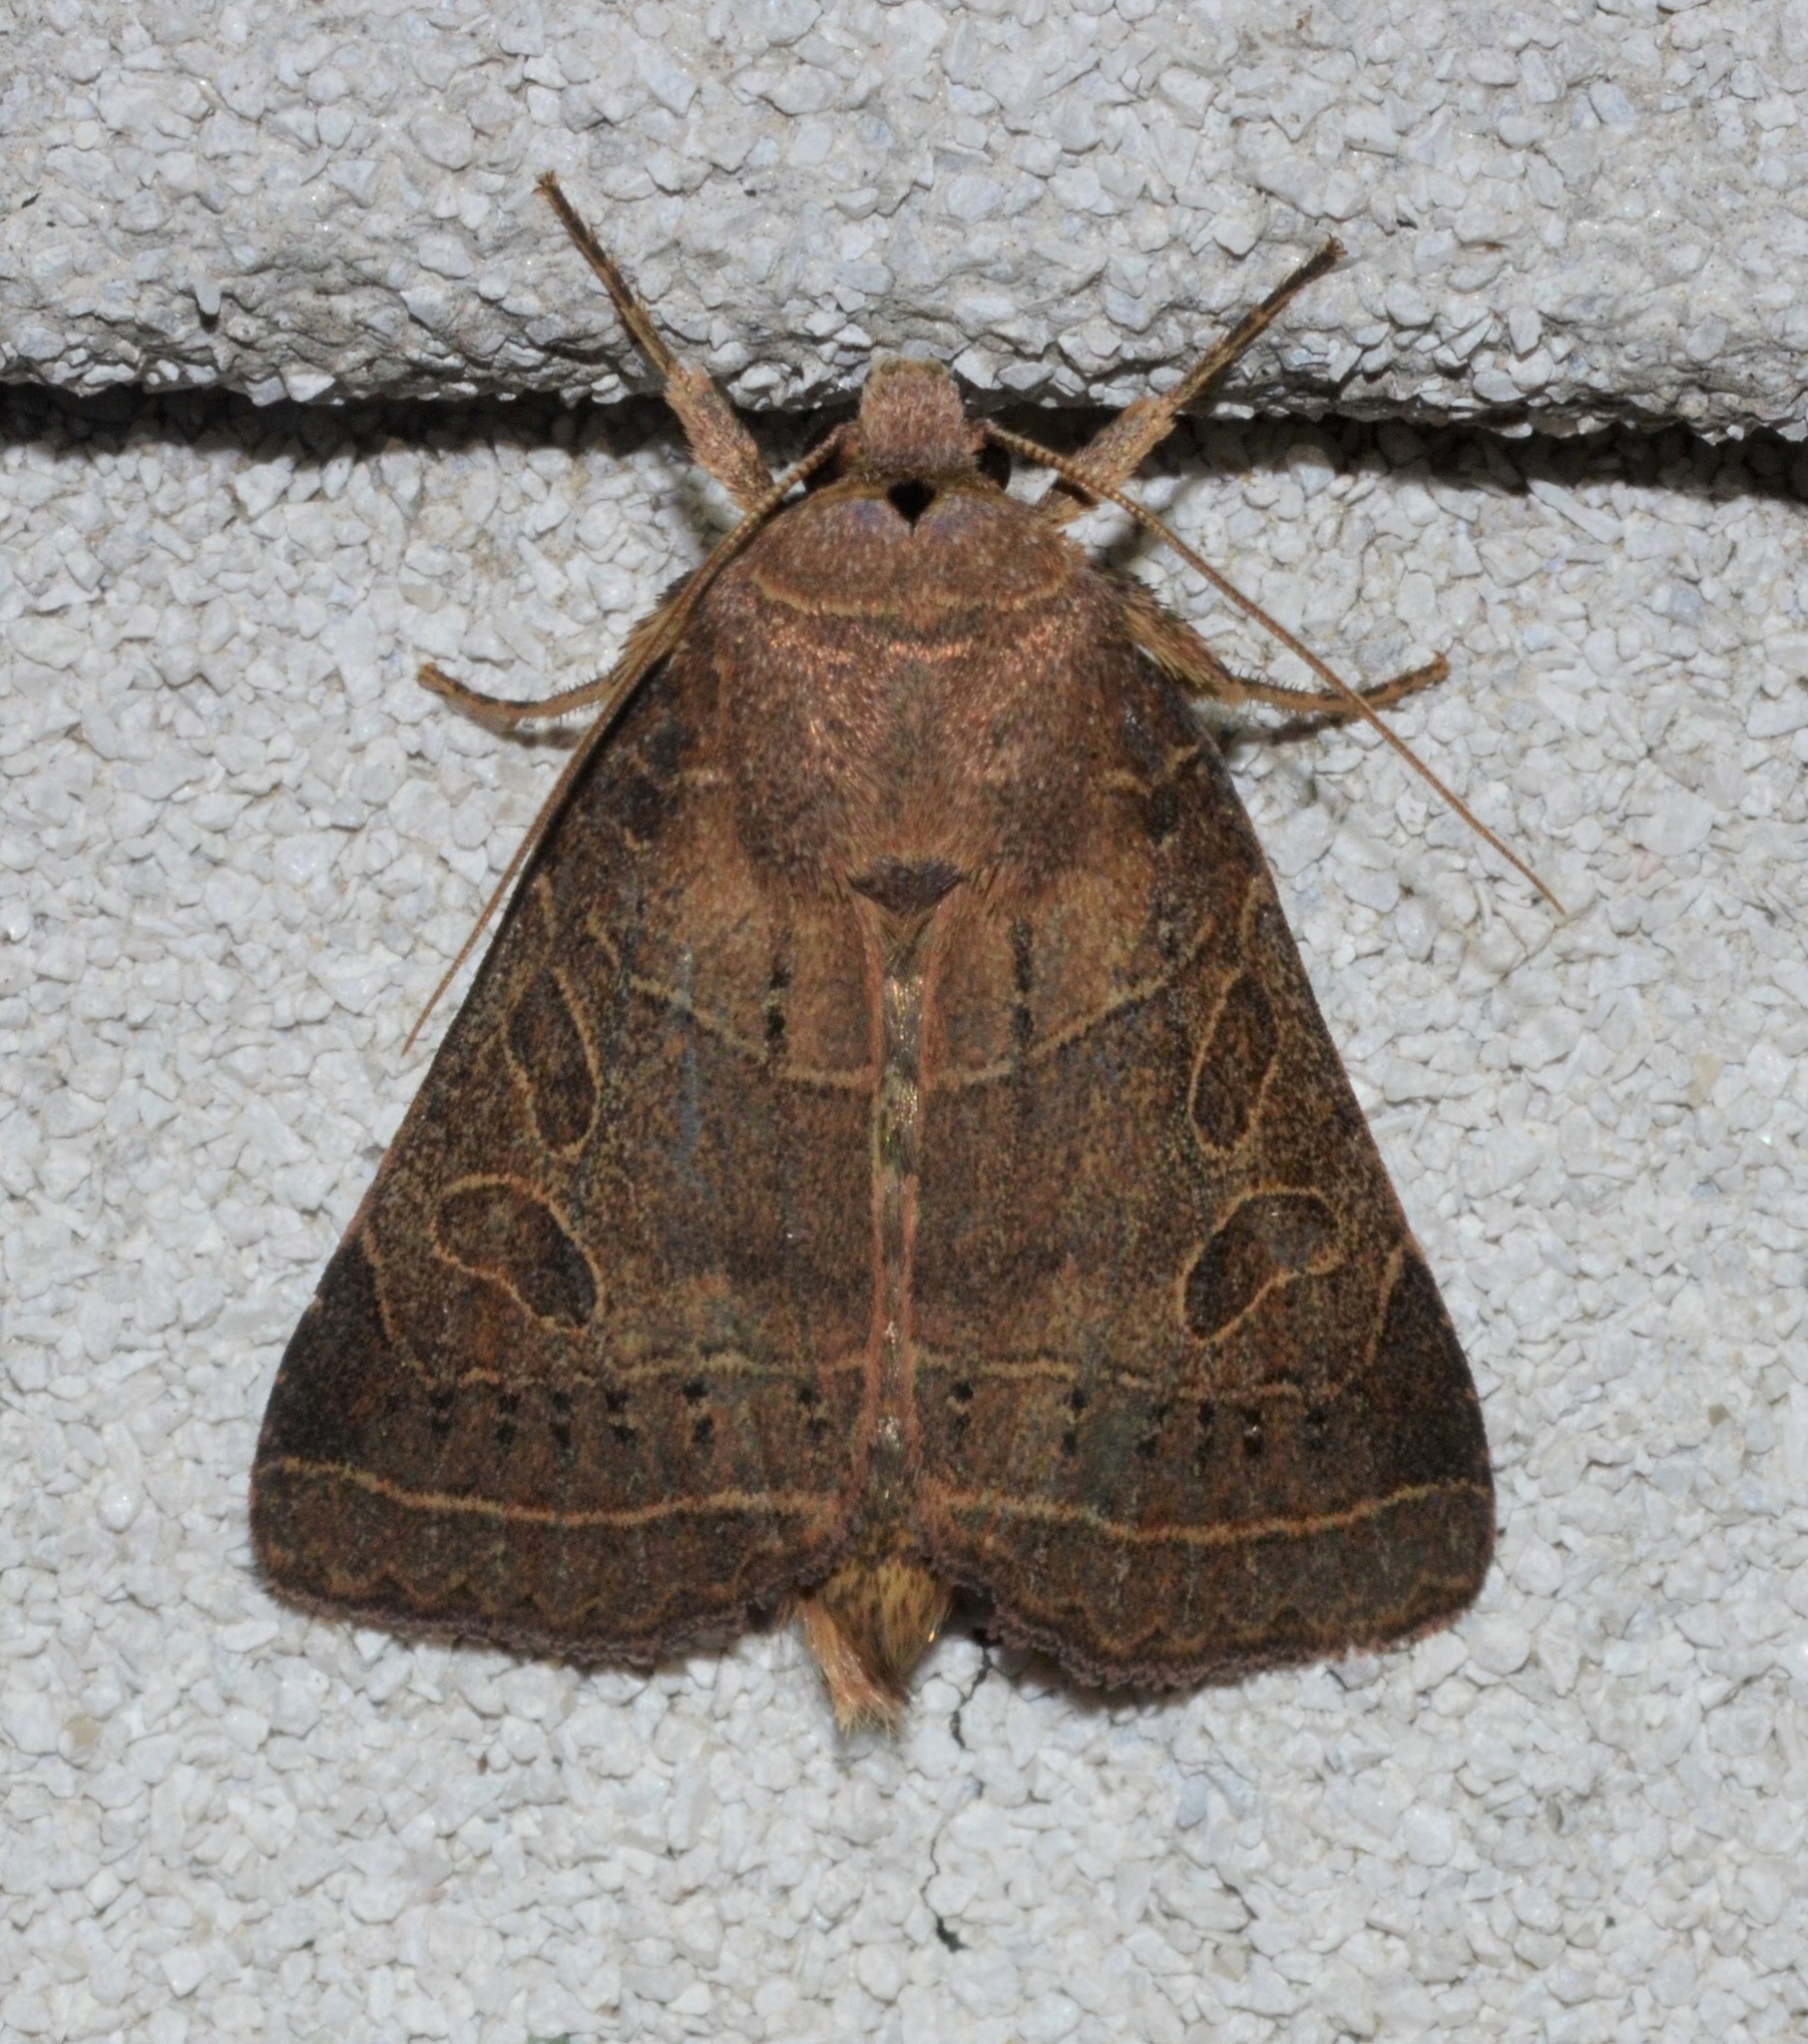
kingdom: Animalia
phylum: Arthropoda
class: Insecta
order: Lepidoptera
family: Noctuidae
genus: Orthodes
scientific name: Orthodes majuscula
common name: Rustic quaker
